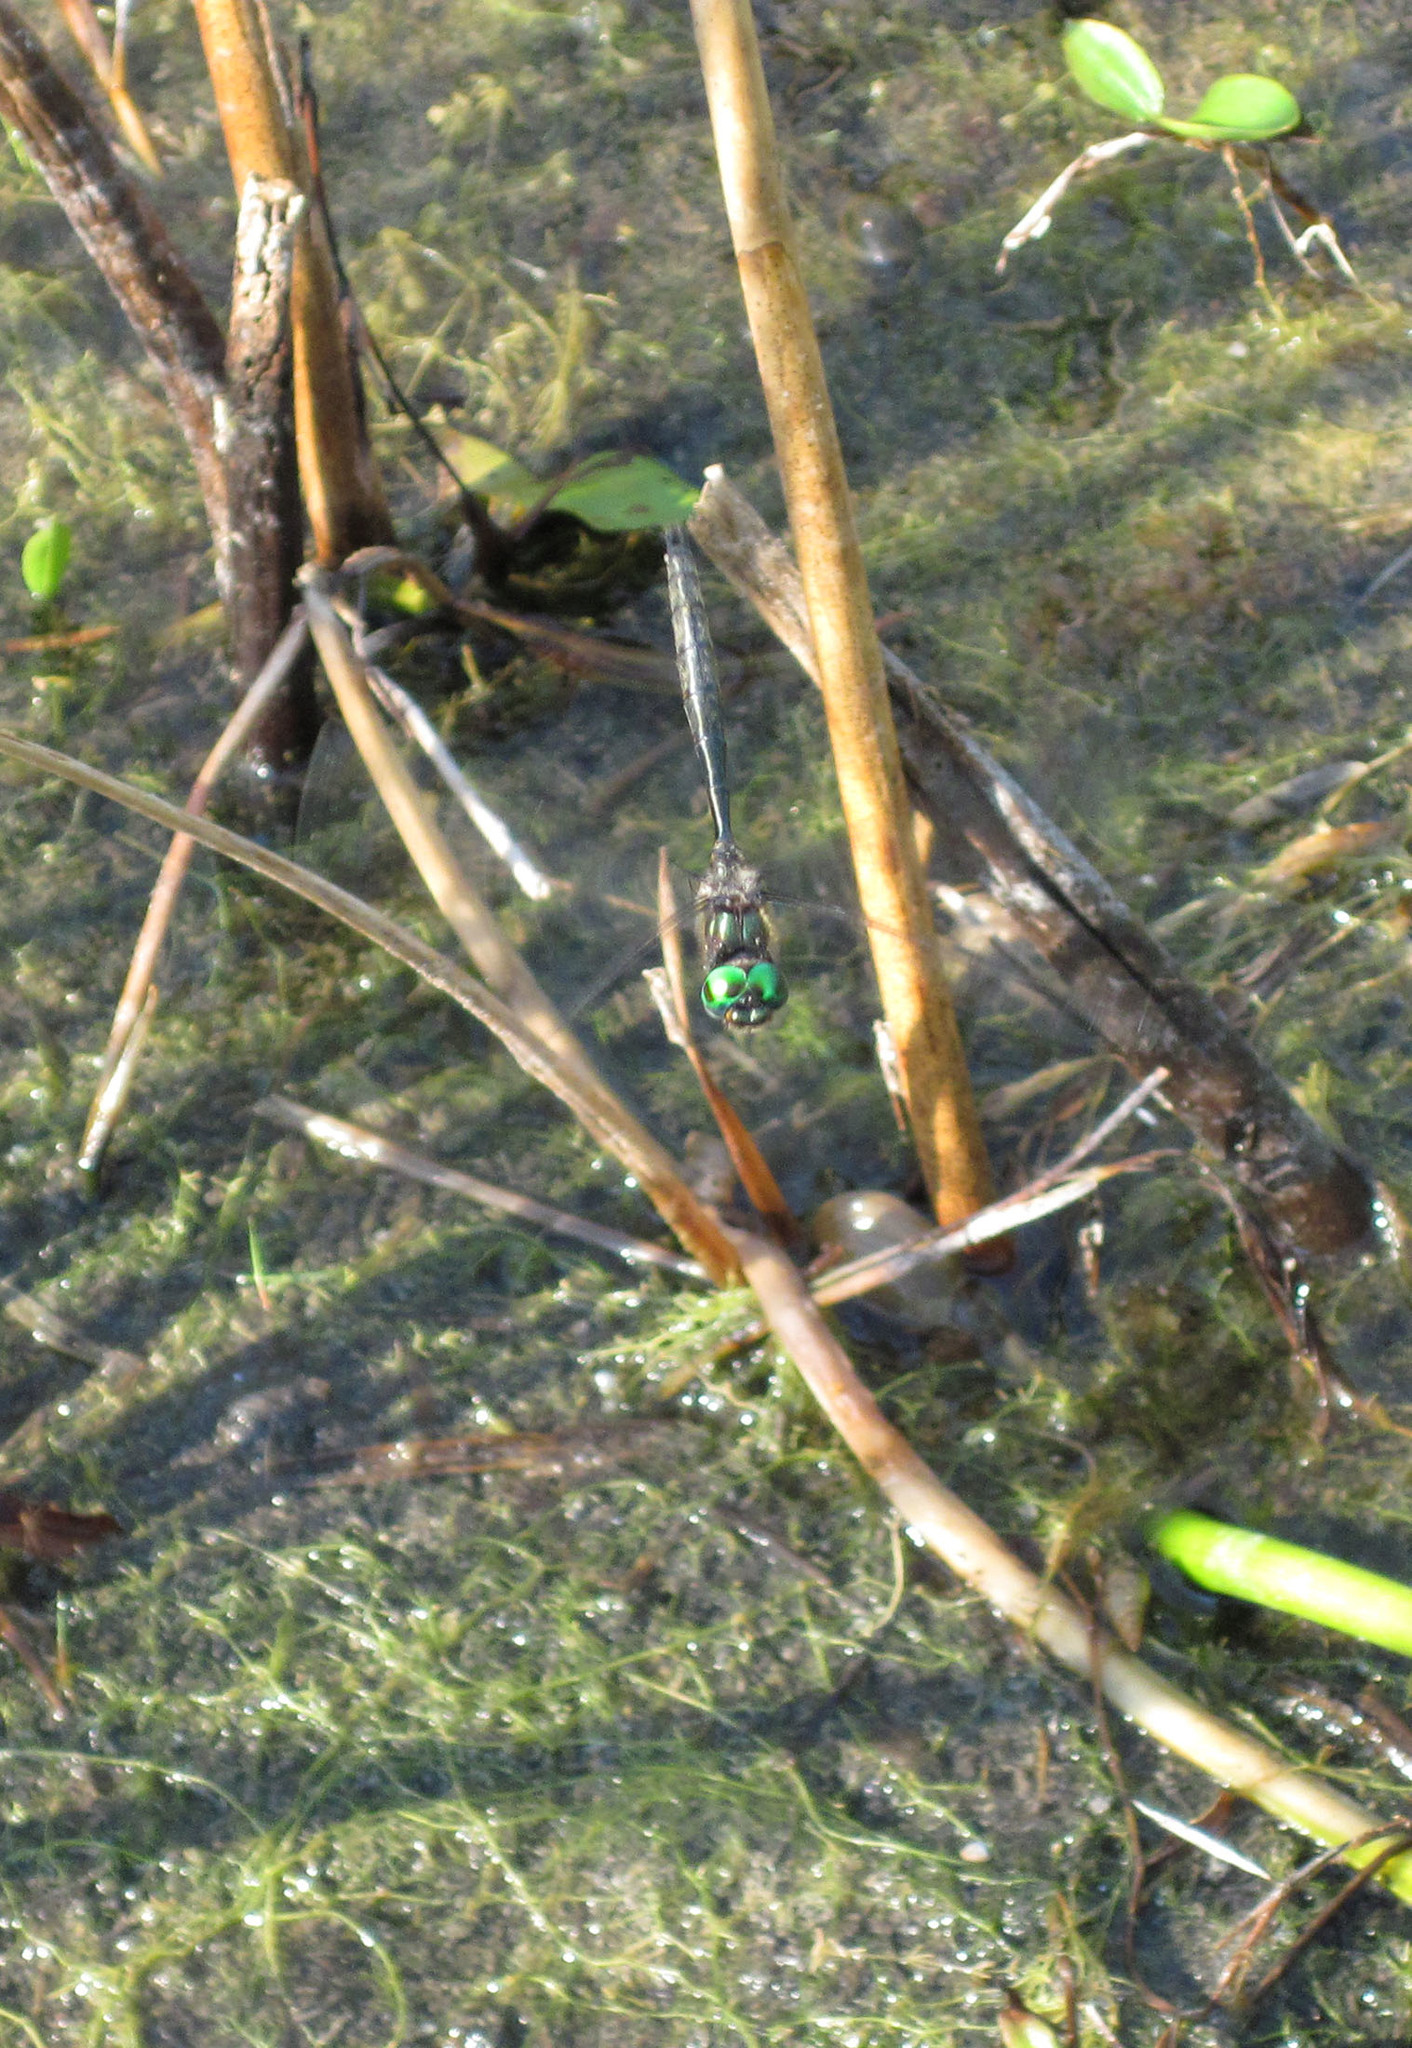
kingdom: Animalia
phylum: Arthropoda
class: Insecta
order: Odonata
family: Corduliidae
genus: Somatochlora
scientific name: Somatochlora hineana
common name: Hine's emerald
